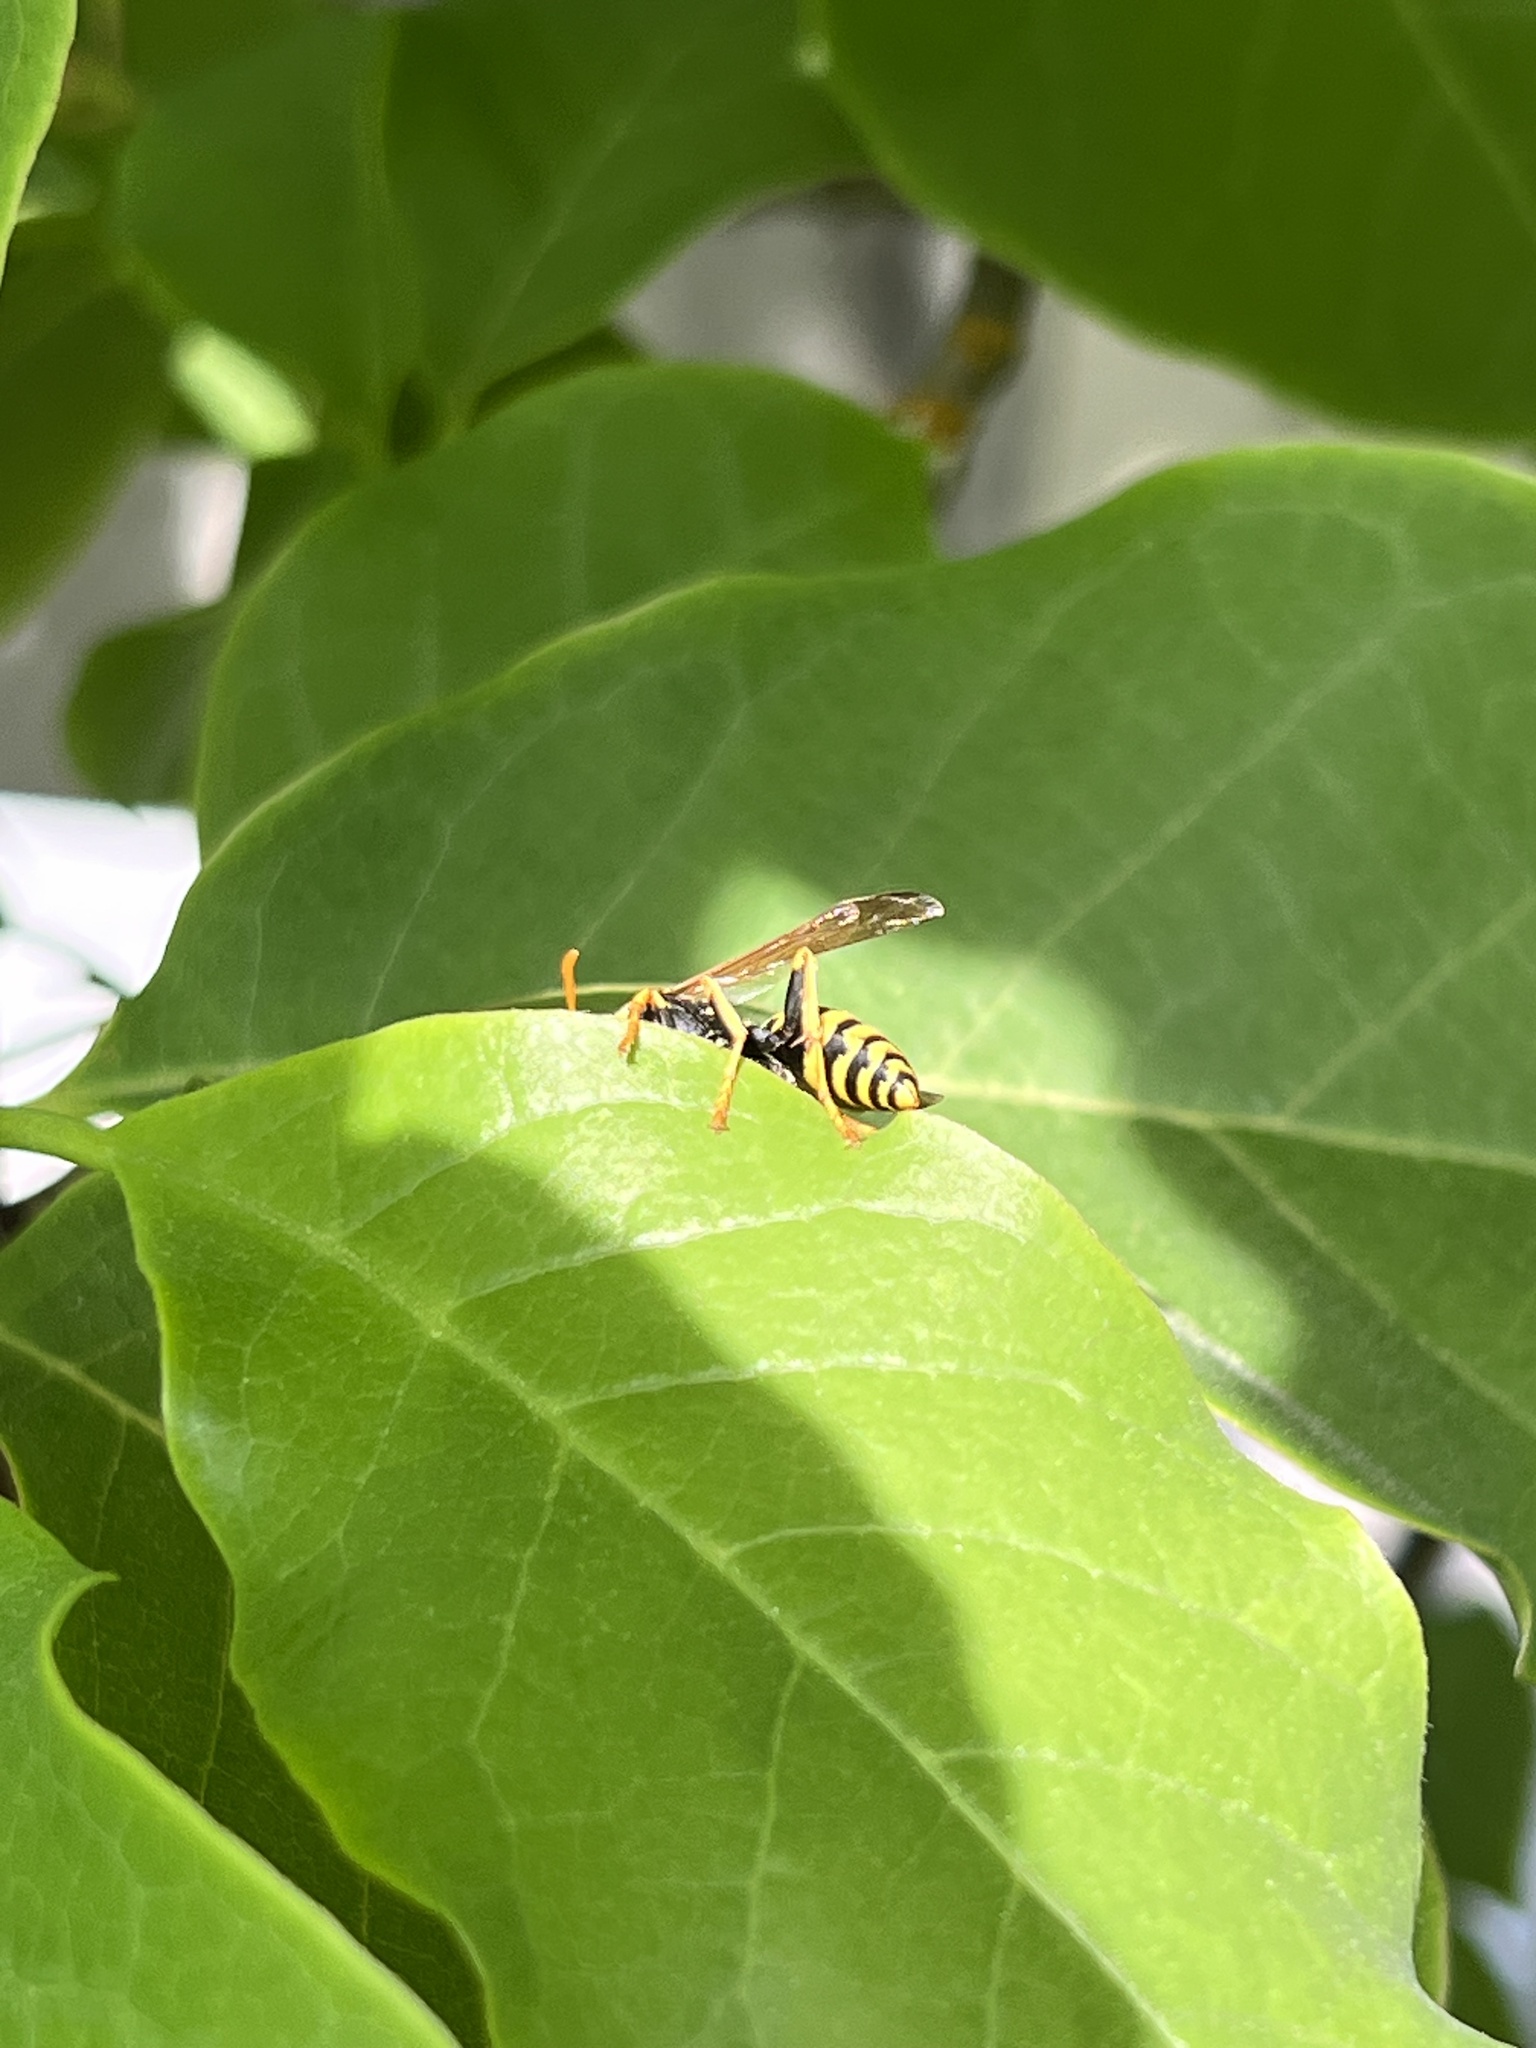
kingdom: Animalia
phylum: Arthropoda
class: Insecta
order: Hymenoptera
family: Eumenidae
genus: Polistes
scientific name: Polistes dominula
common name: Paper wasp
